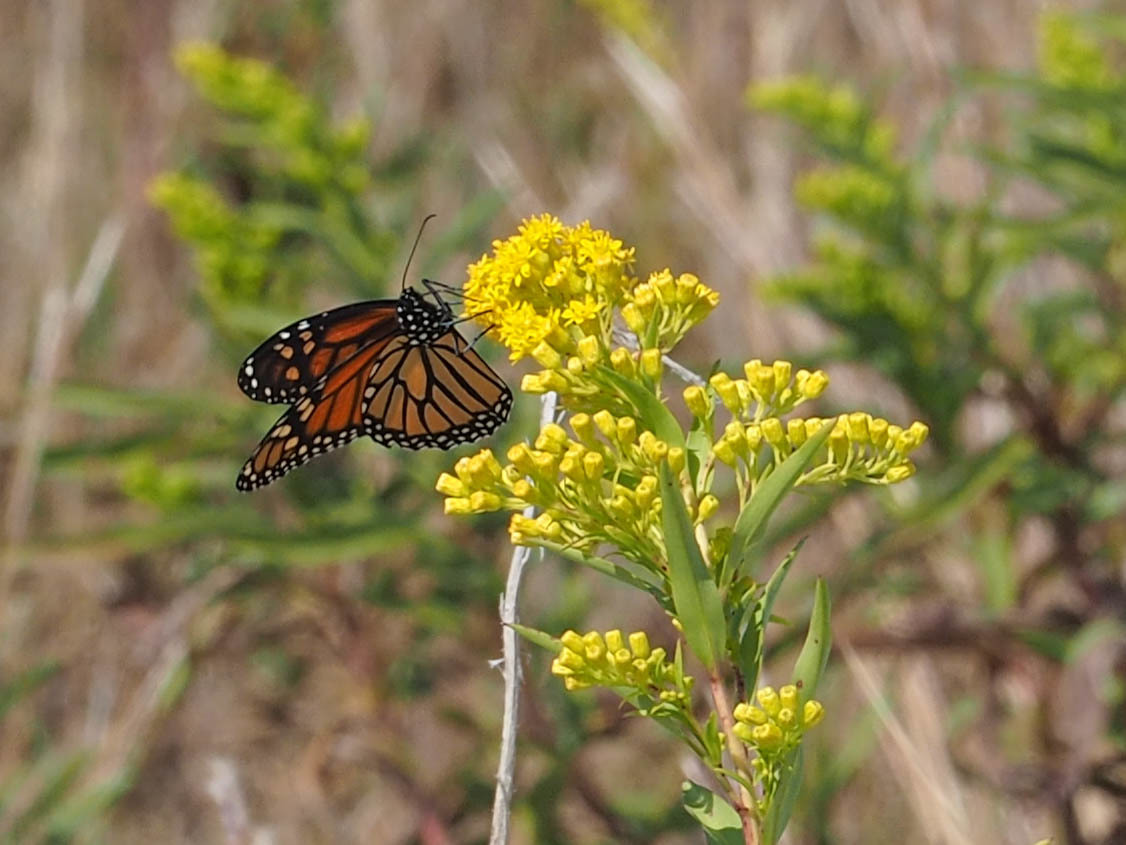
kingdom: Animalia
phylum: Arthropoda
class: Insecta
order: Lepidoptera
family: Nymphalidae
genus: Danaus
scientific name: Danaus plexippus
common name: Monarch
